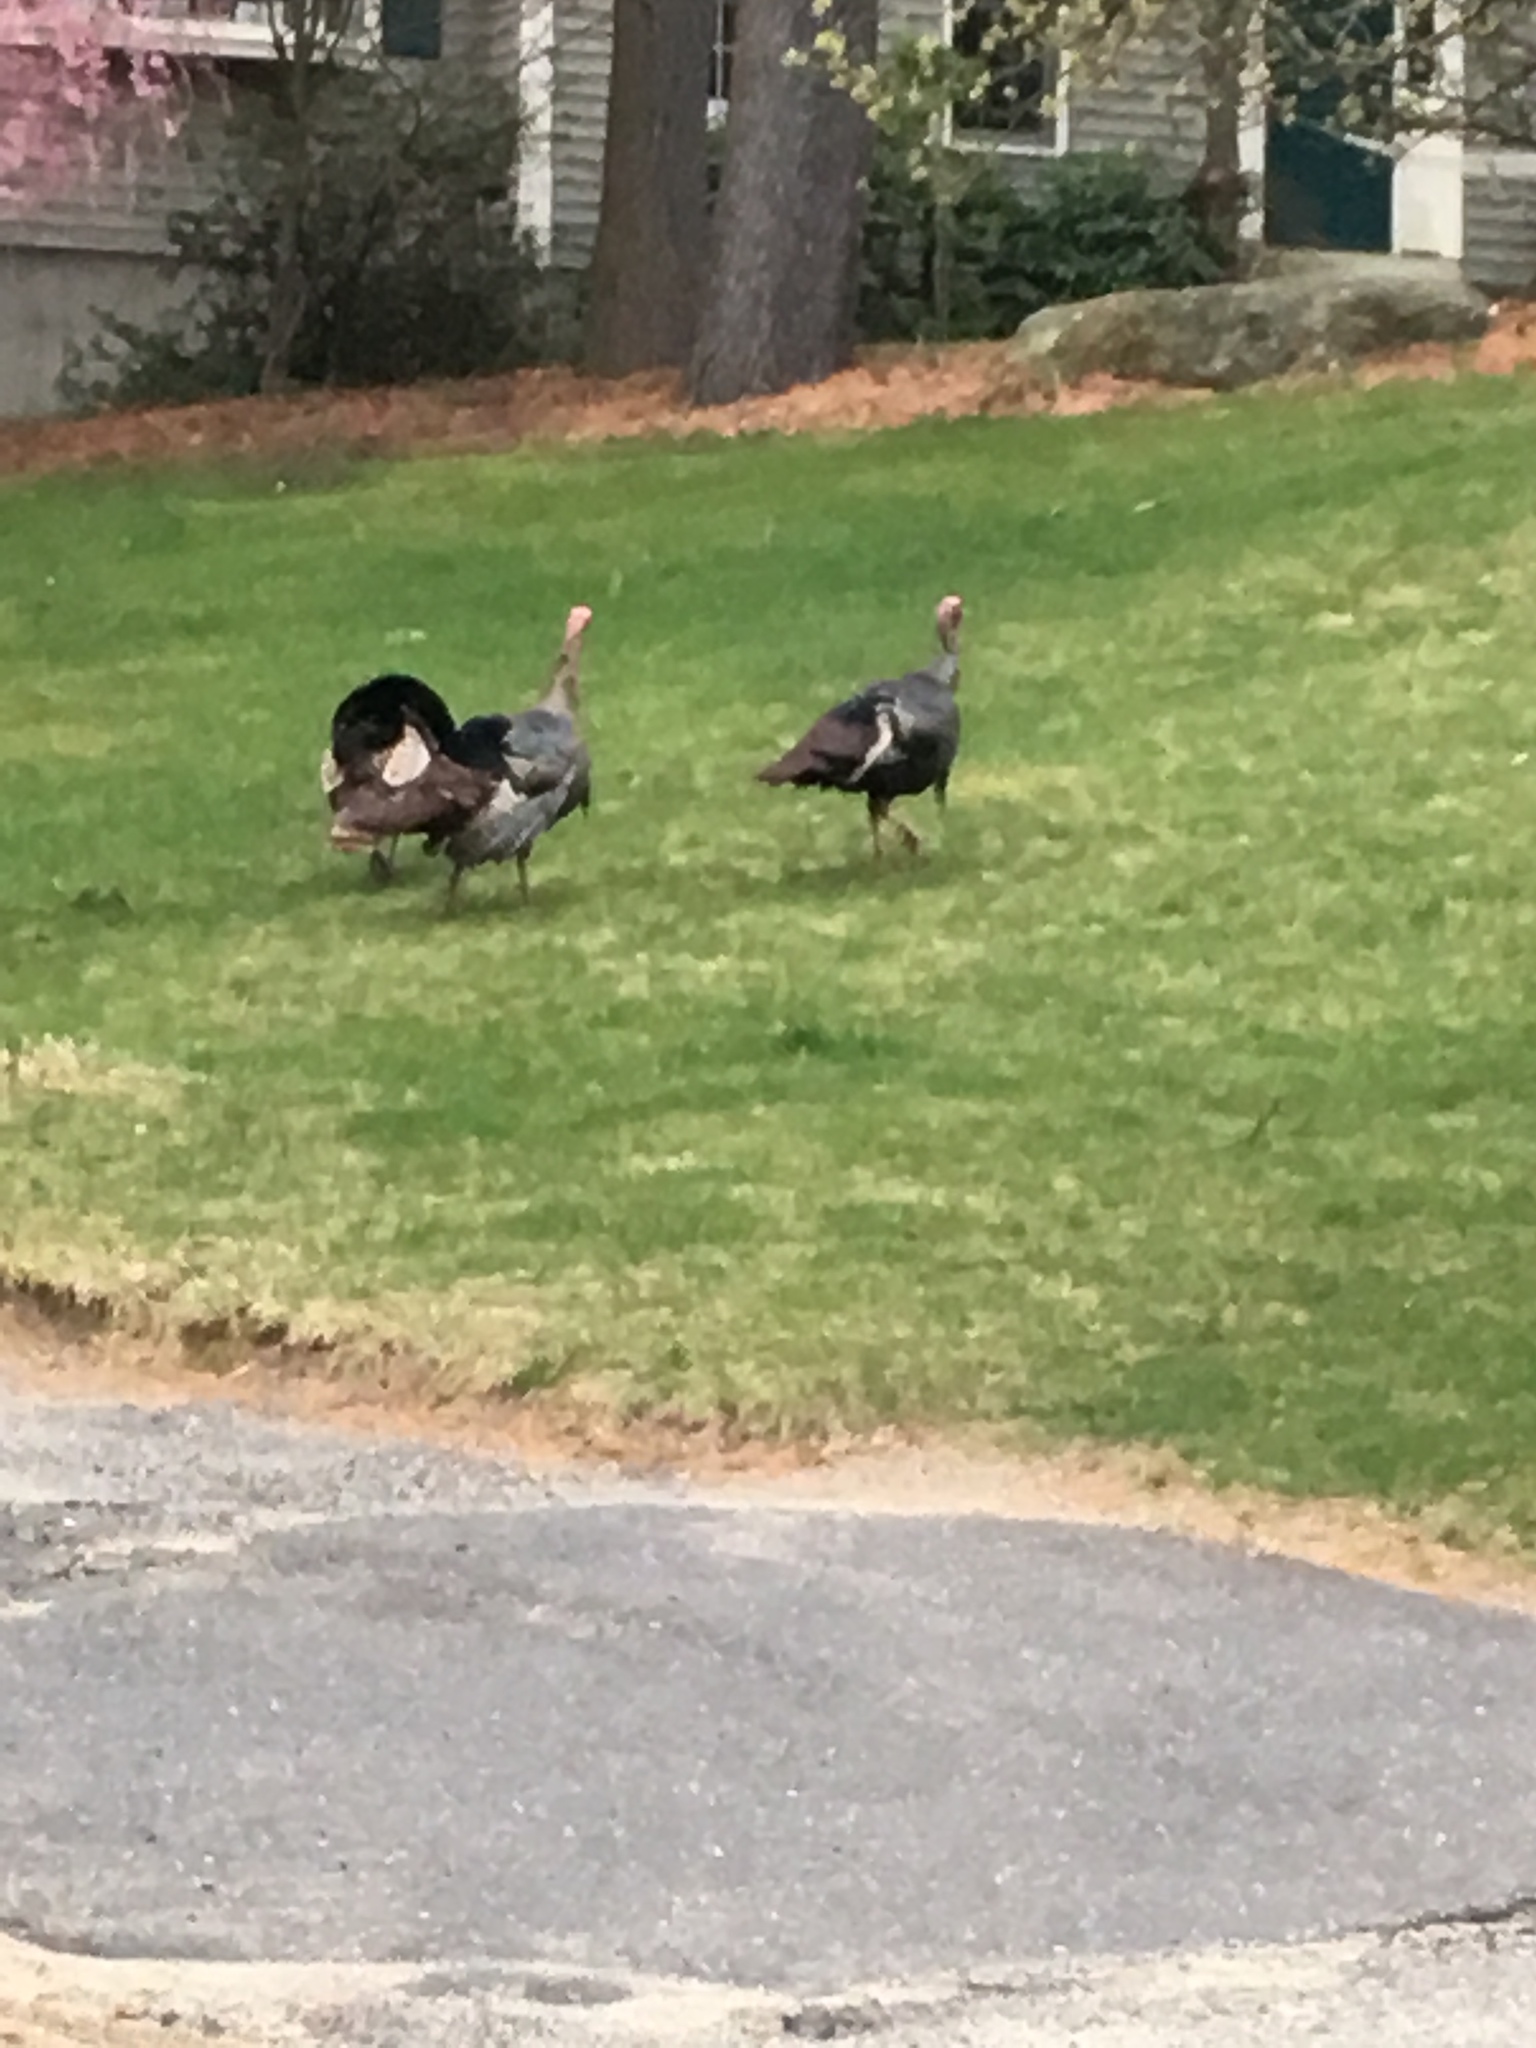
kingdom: Animalia
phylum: Chordata
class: Aves
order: Galliformes
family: Phasianidae
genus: Meleagris
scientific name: Meleagris gallopavo
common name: Wild turkey
